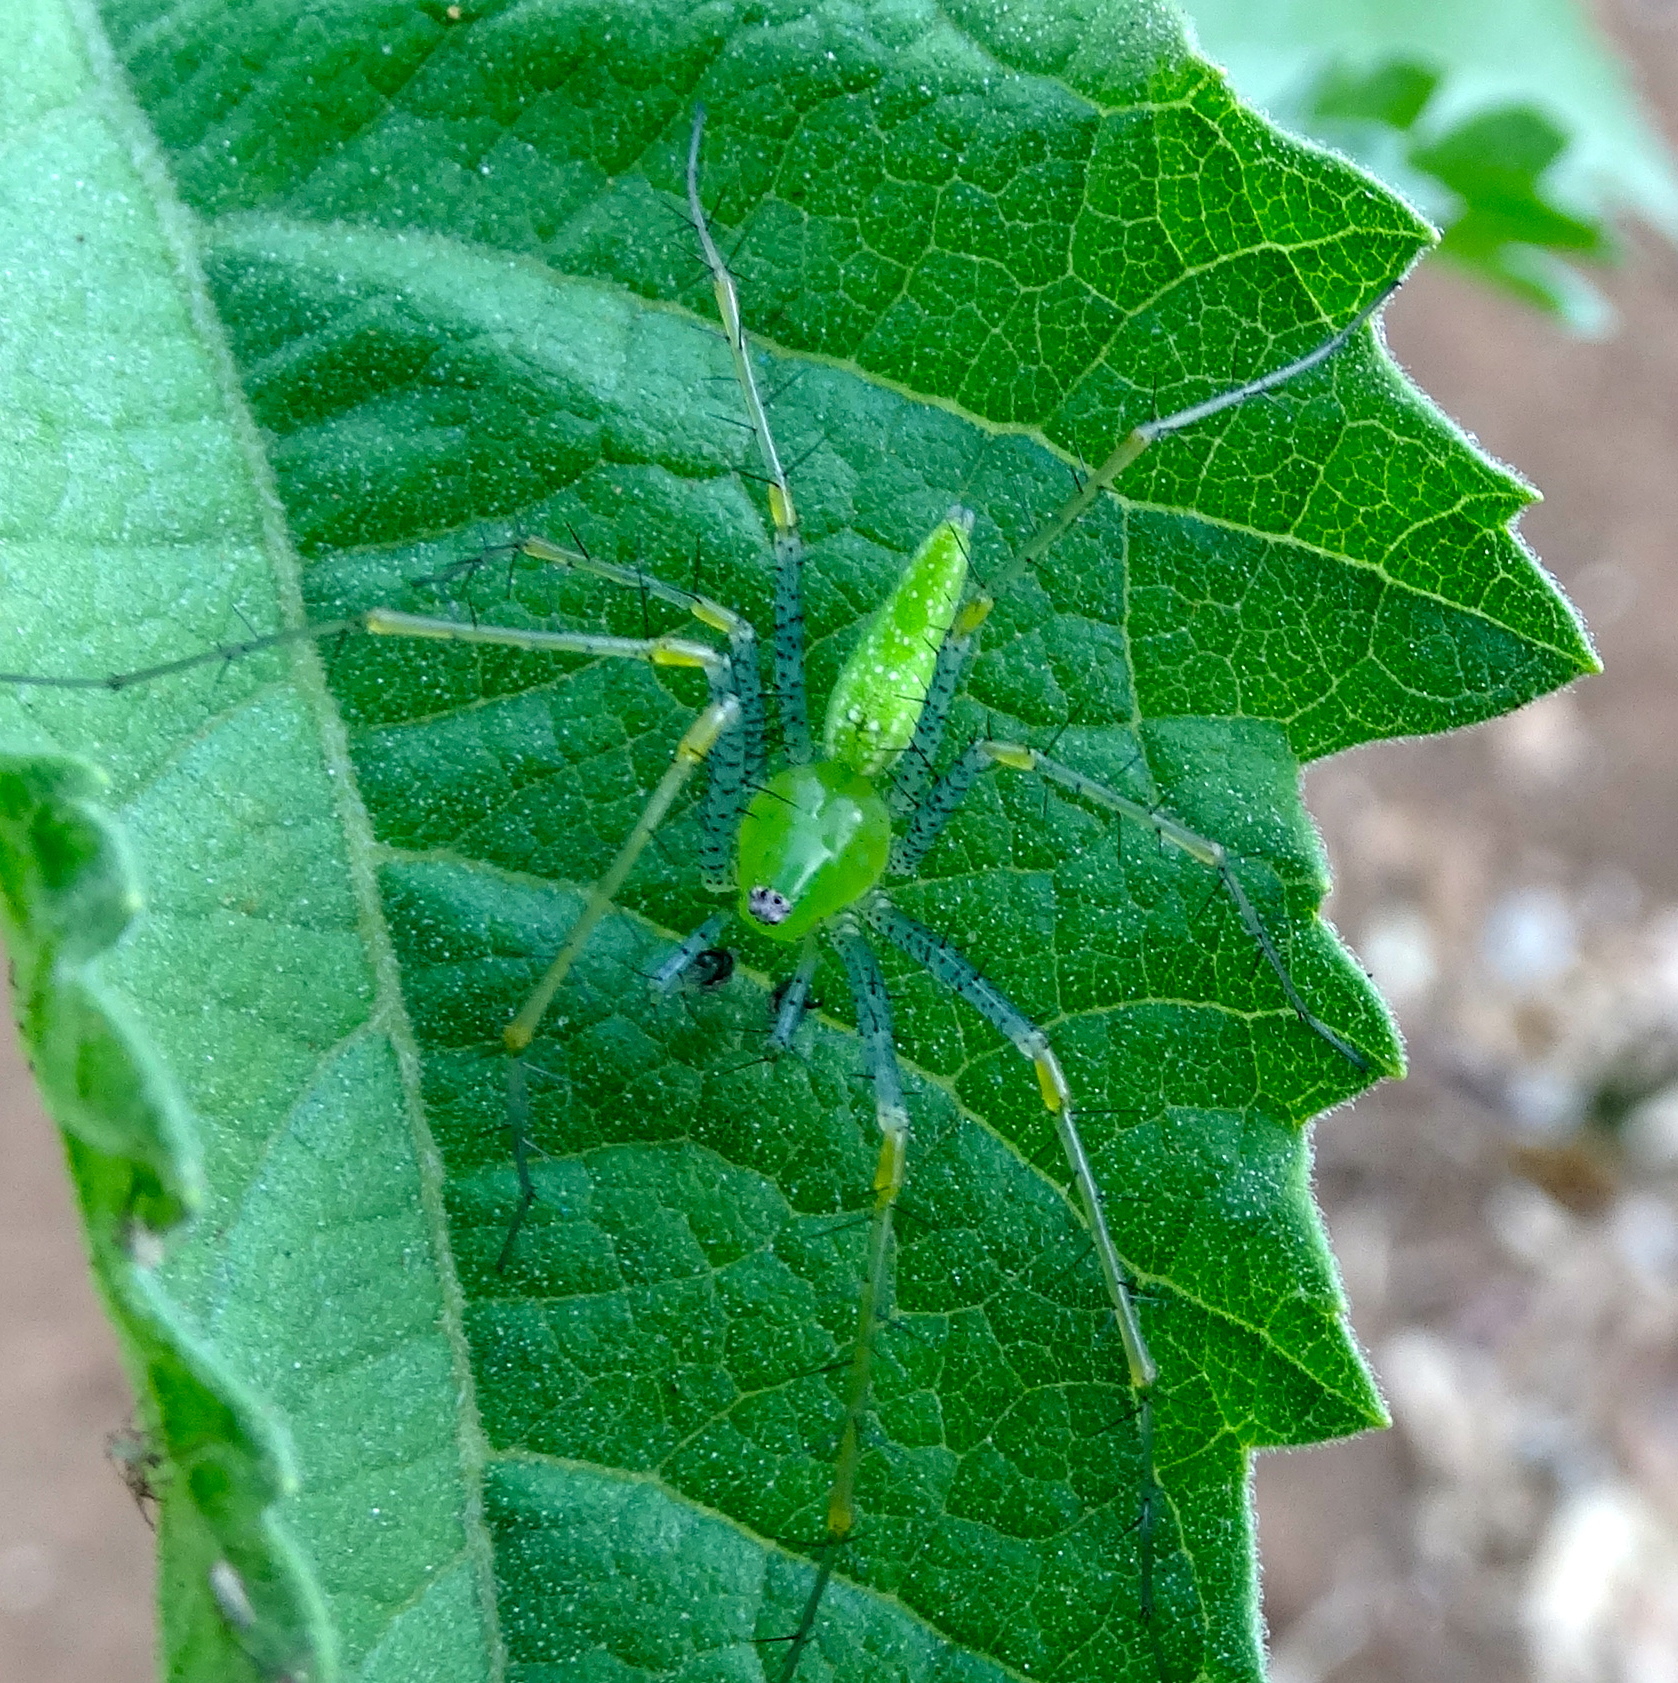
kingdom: Animalia
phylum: Arthropoda
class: Arachnida
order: Araneae
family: Oxyopidae
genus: Peucetia
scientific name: Peucetia longipalpis
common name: Lynx spiders
